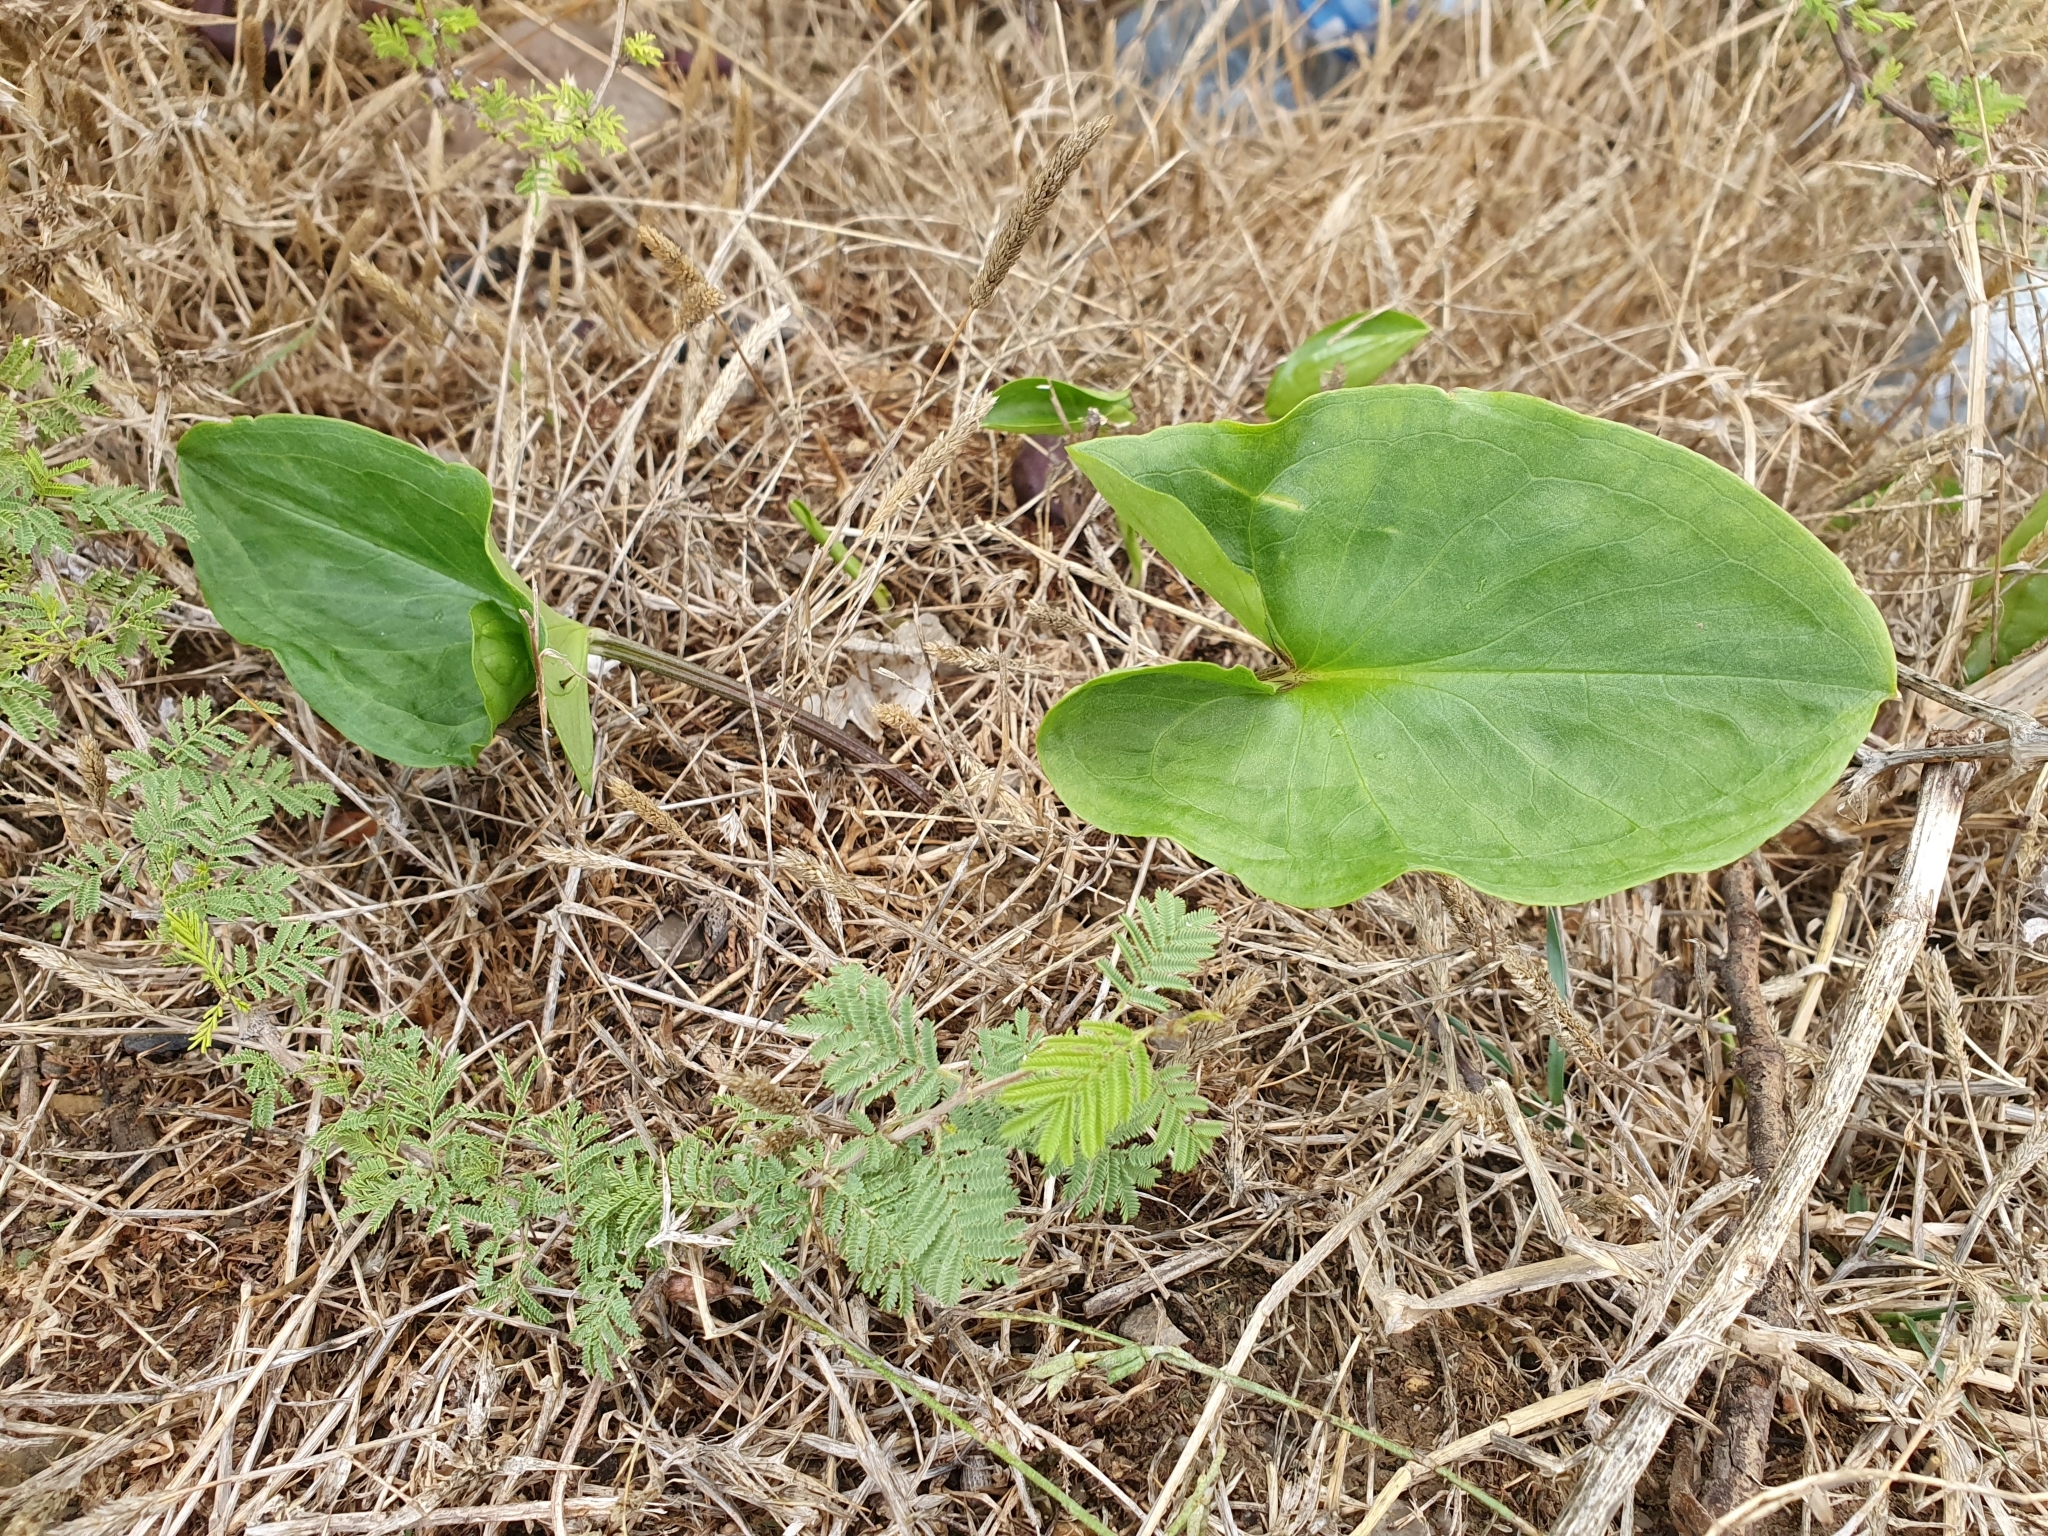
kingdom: Plantae
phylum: Tracheophyta
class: Liliopsida
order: Alismatales
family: Araceae
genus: Arum
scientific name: Arum italicum
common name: Italian lords-and-ladies
